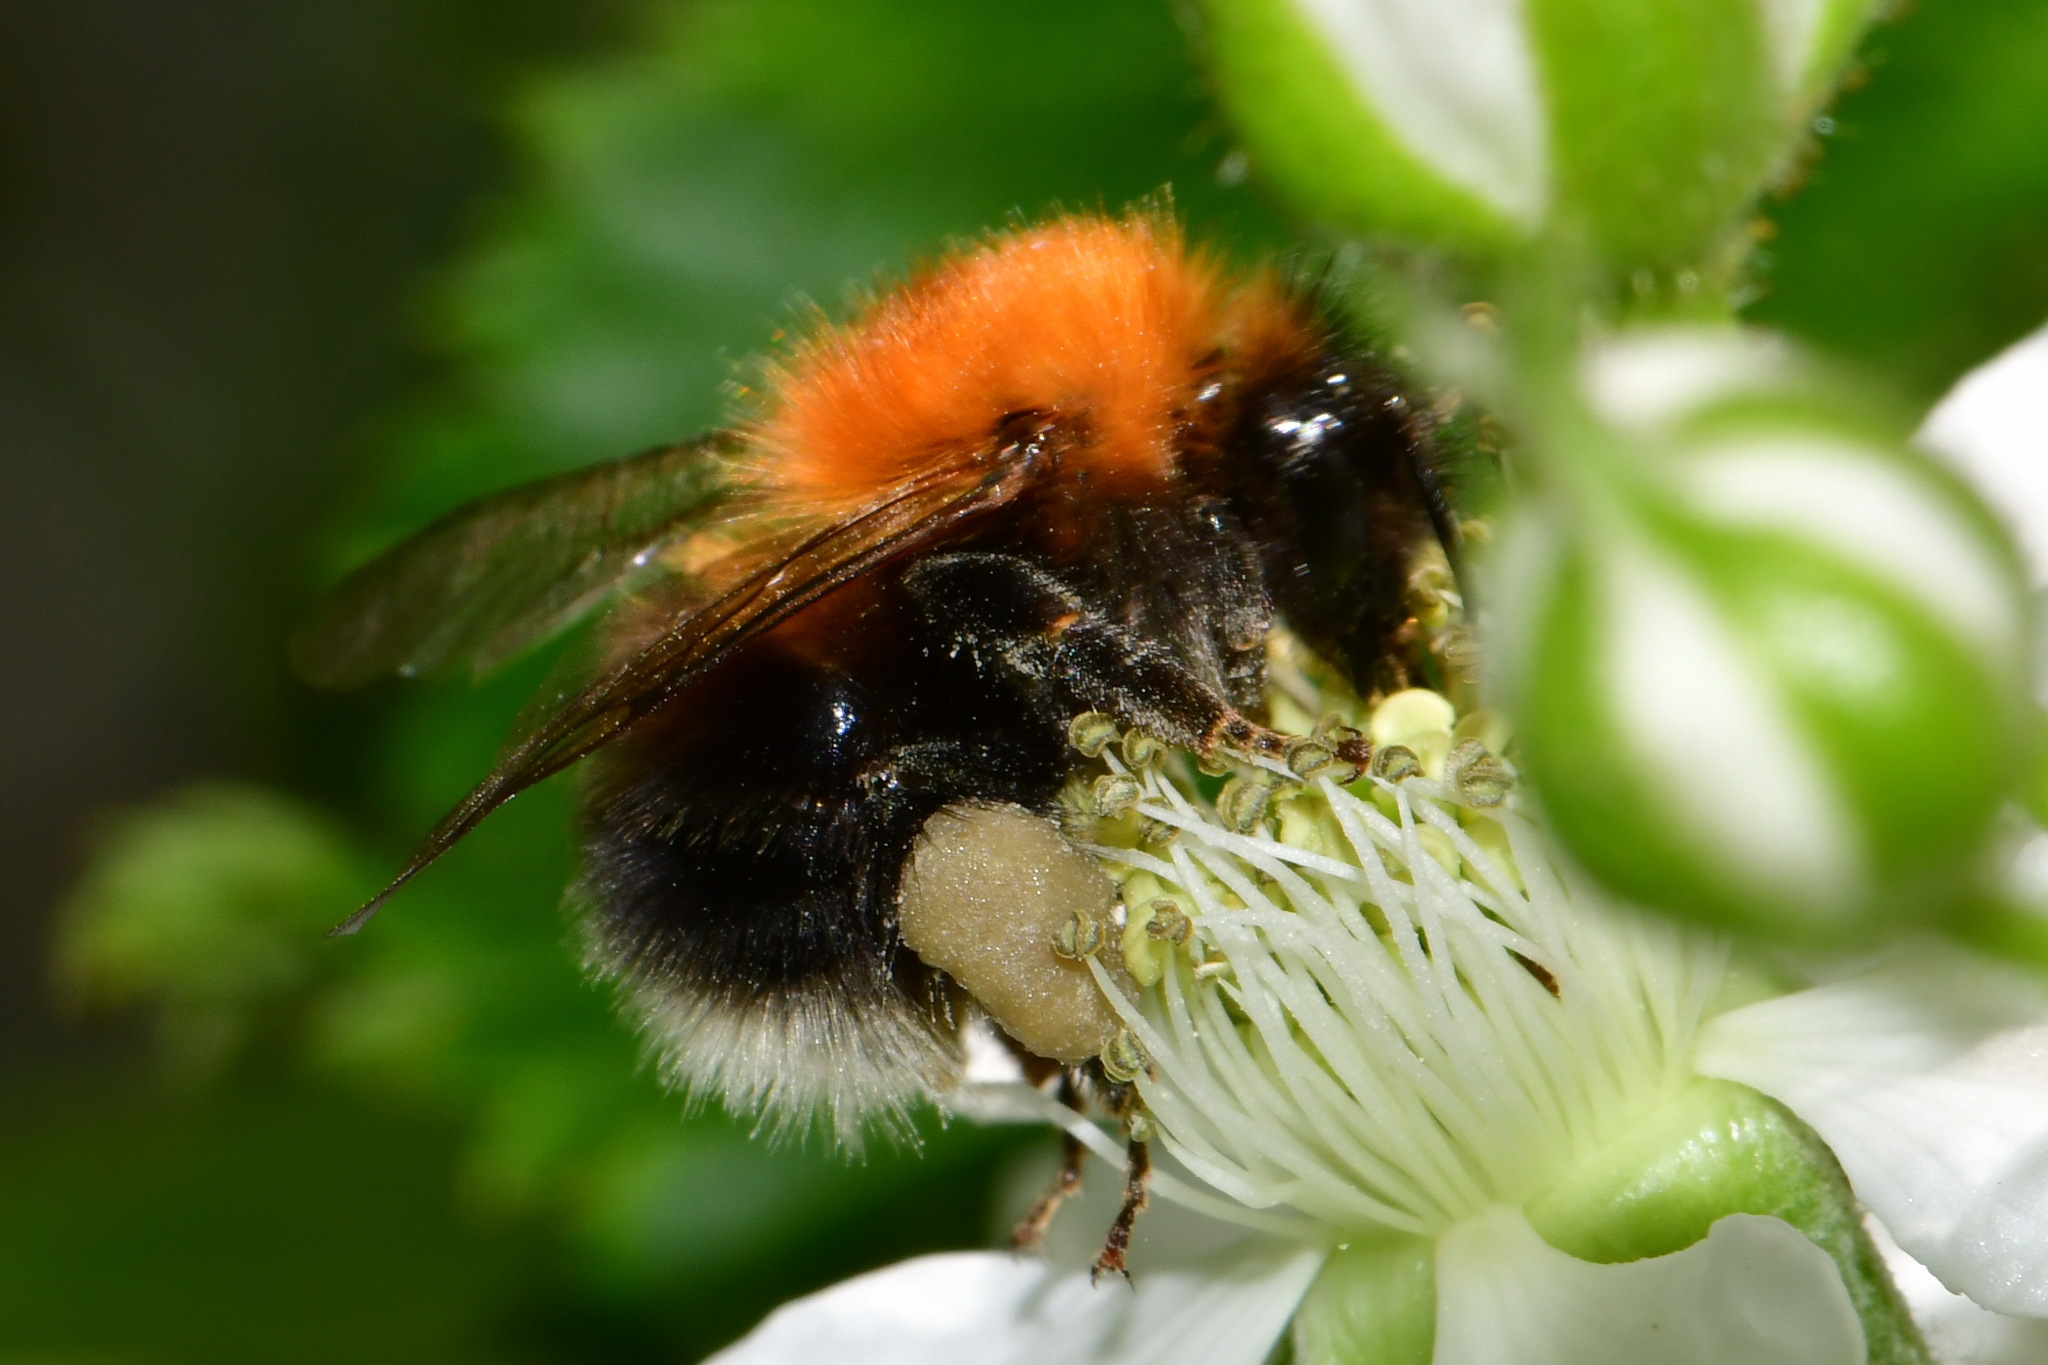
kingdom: Animalia
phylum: Arthropoda
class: Insecta
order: Hymenoptera
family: Apidae
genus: Bombus
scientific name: Bombus hypnorum
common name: New garden bumblebee
